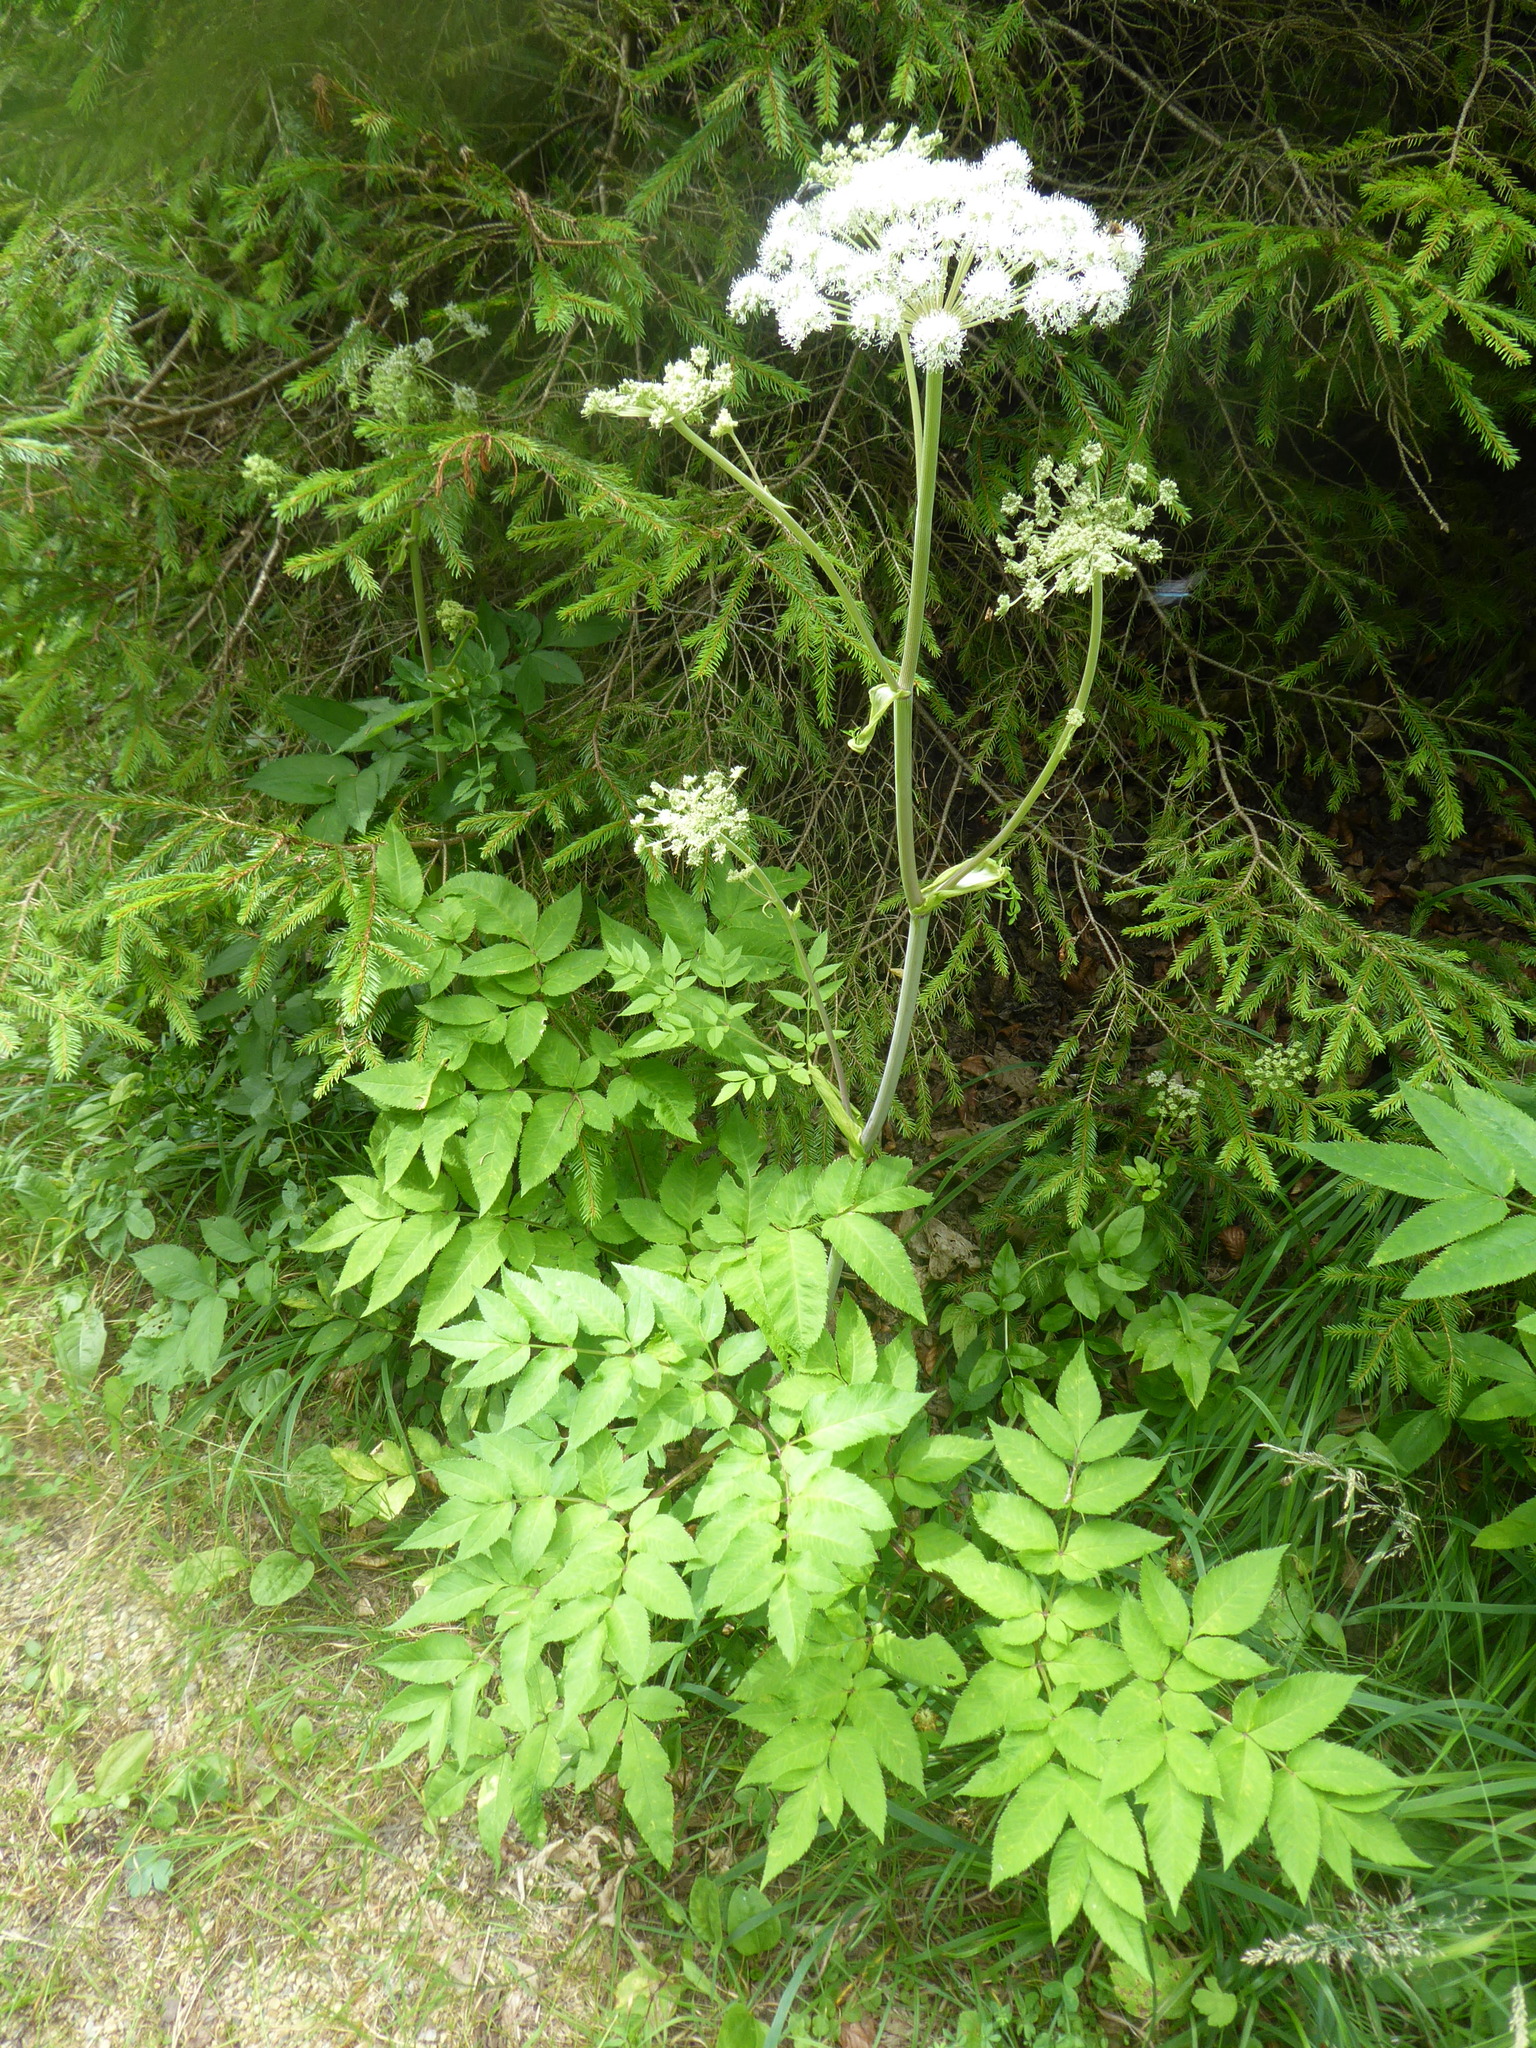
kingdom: Plantae
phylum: Tracheophyta
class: Magnoliopsida
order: Apiales
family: Apiaceae
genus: Angelica
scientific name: Angelica sylvestris
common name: Wild angelica
